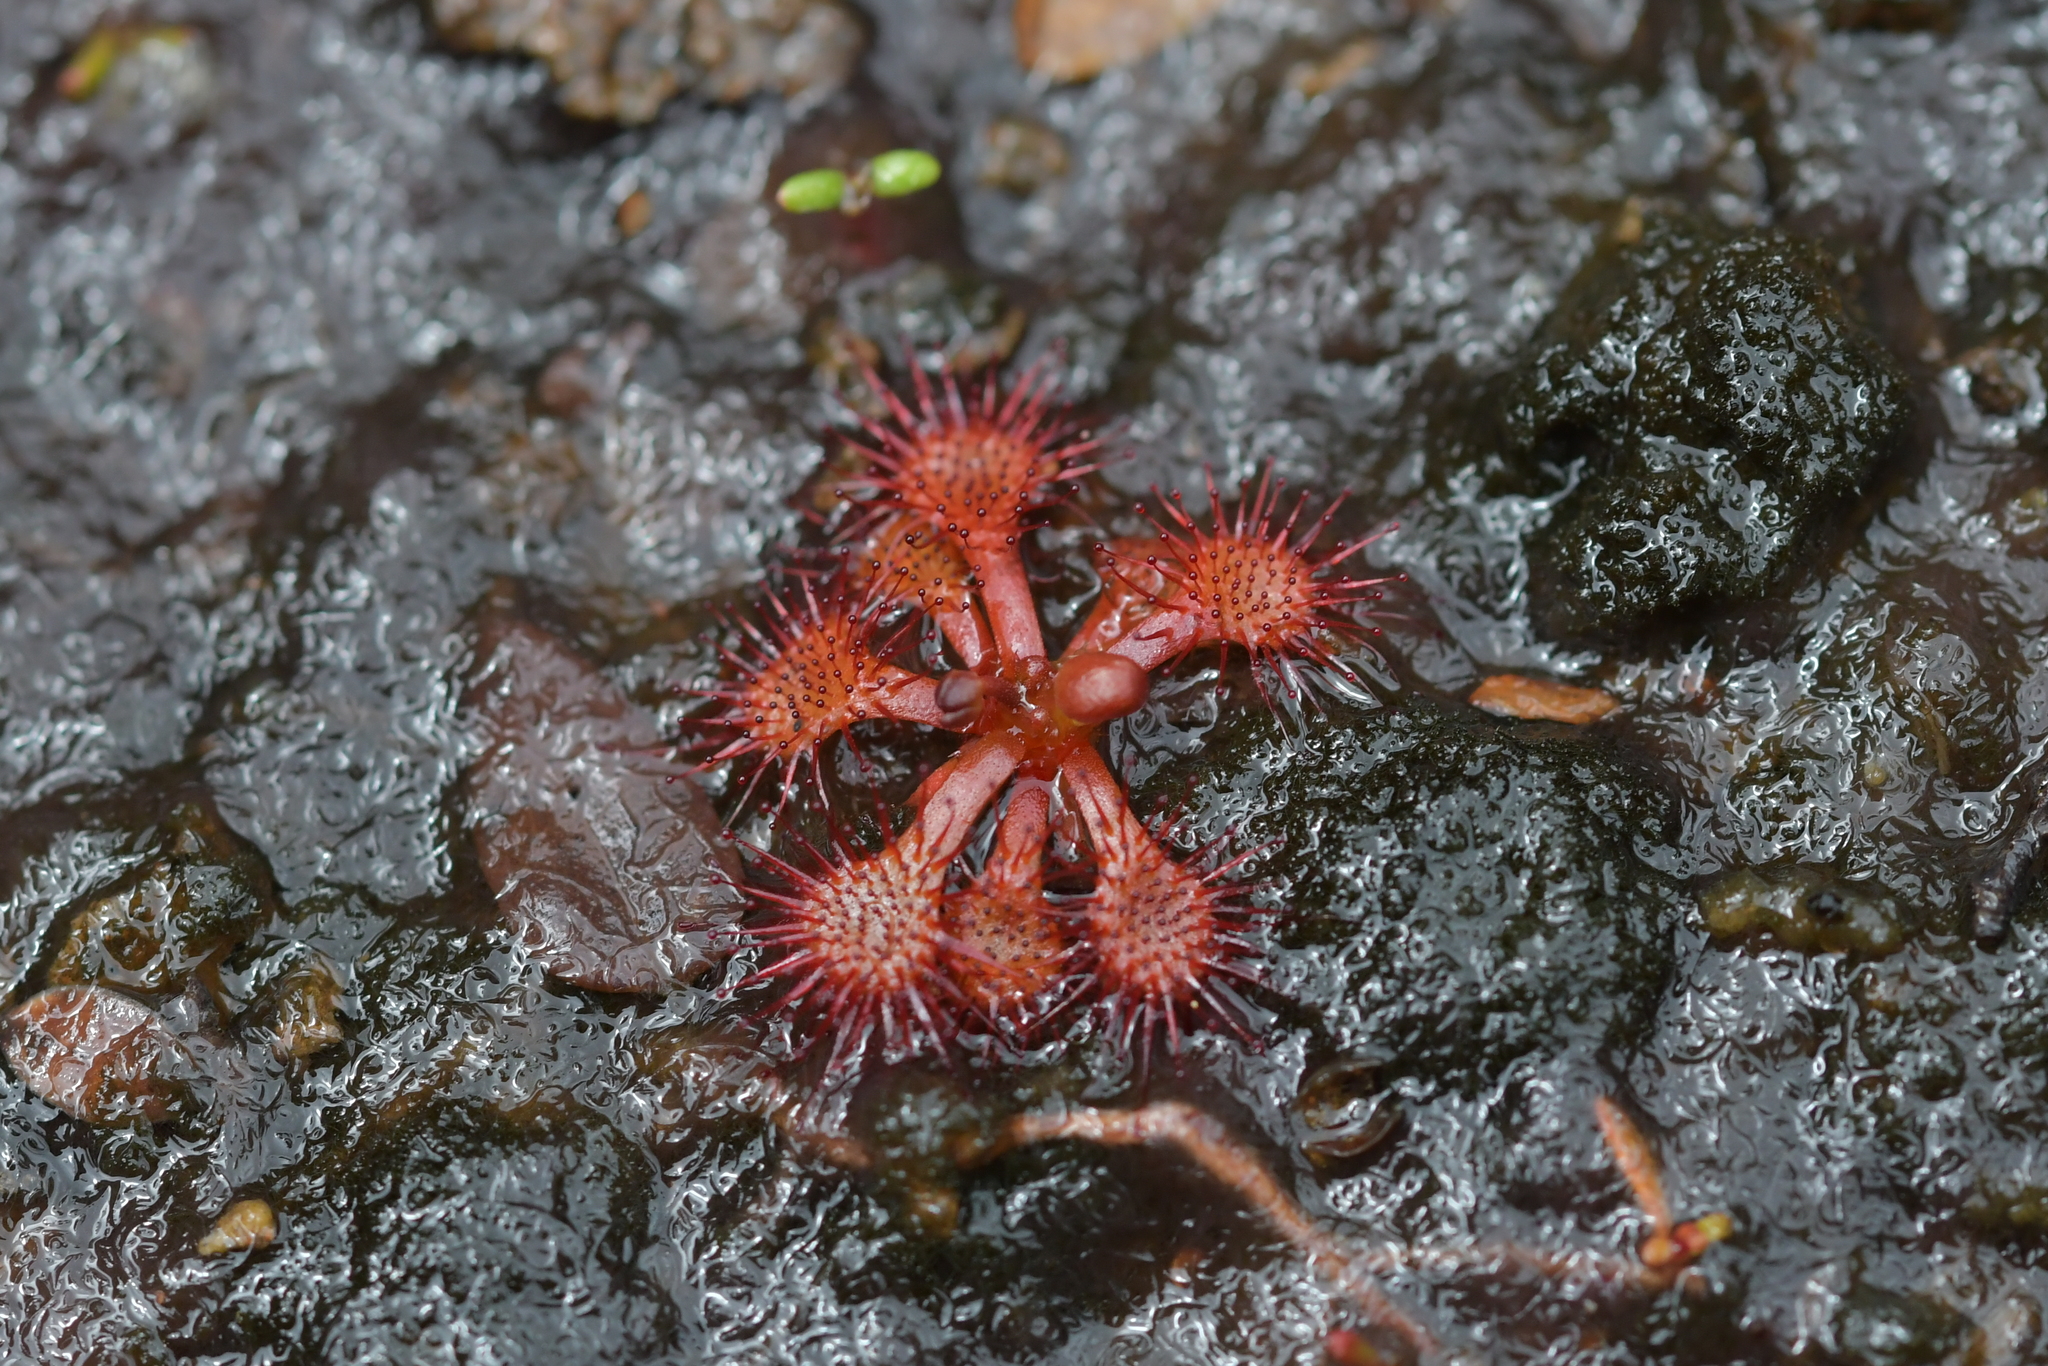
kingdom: Plantae
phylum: Tracheophyta
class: Magnoliopsida
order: Caryophyllales
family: Droseraceae
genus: Drosera
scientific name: Drosera spatulata
